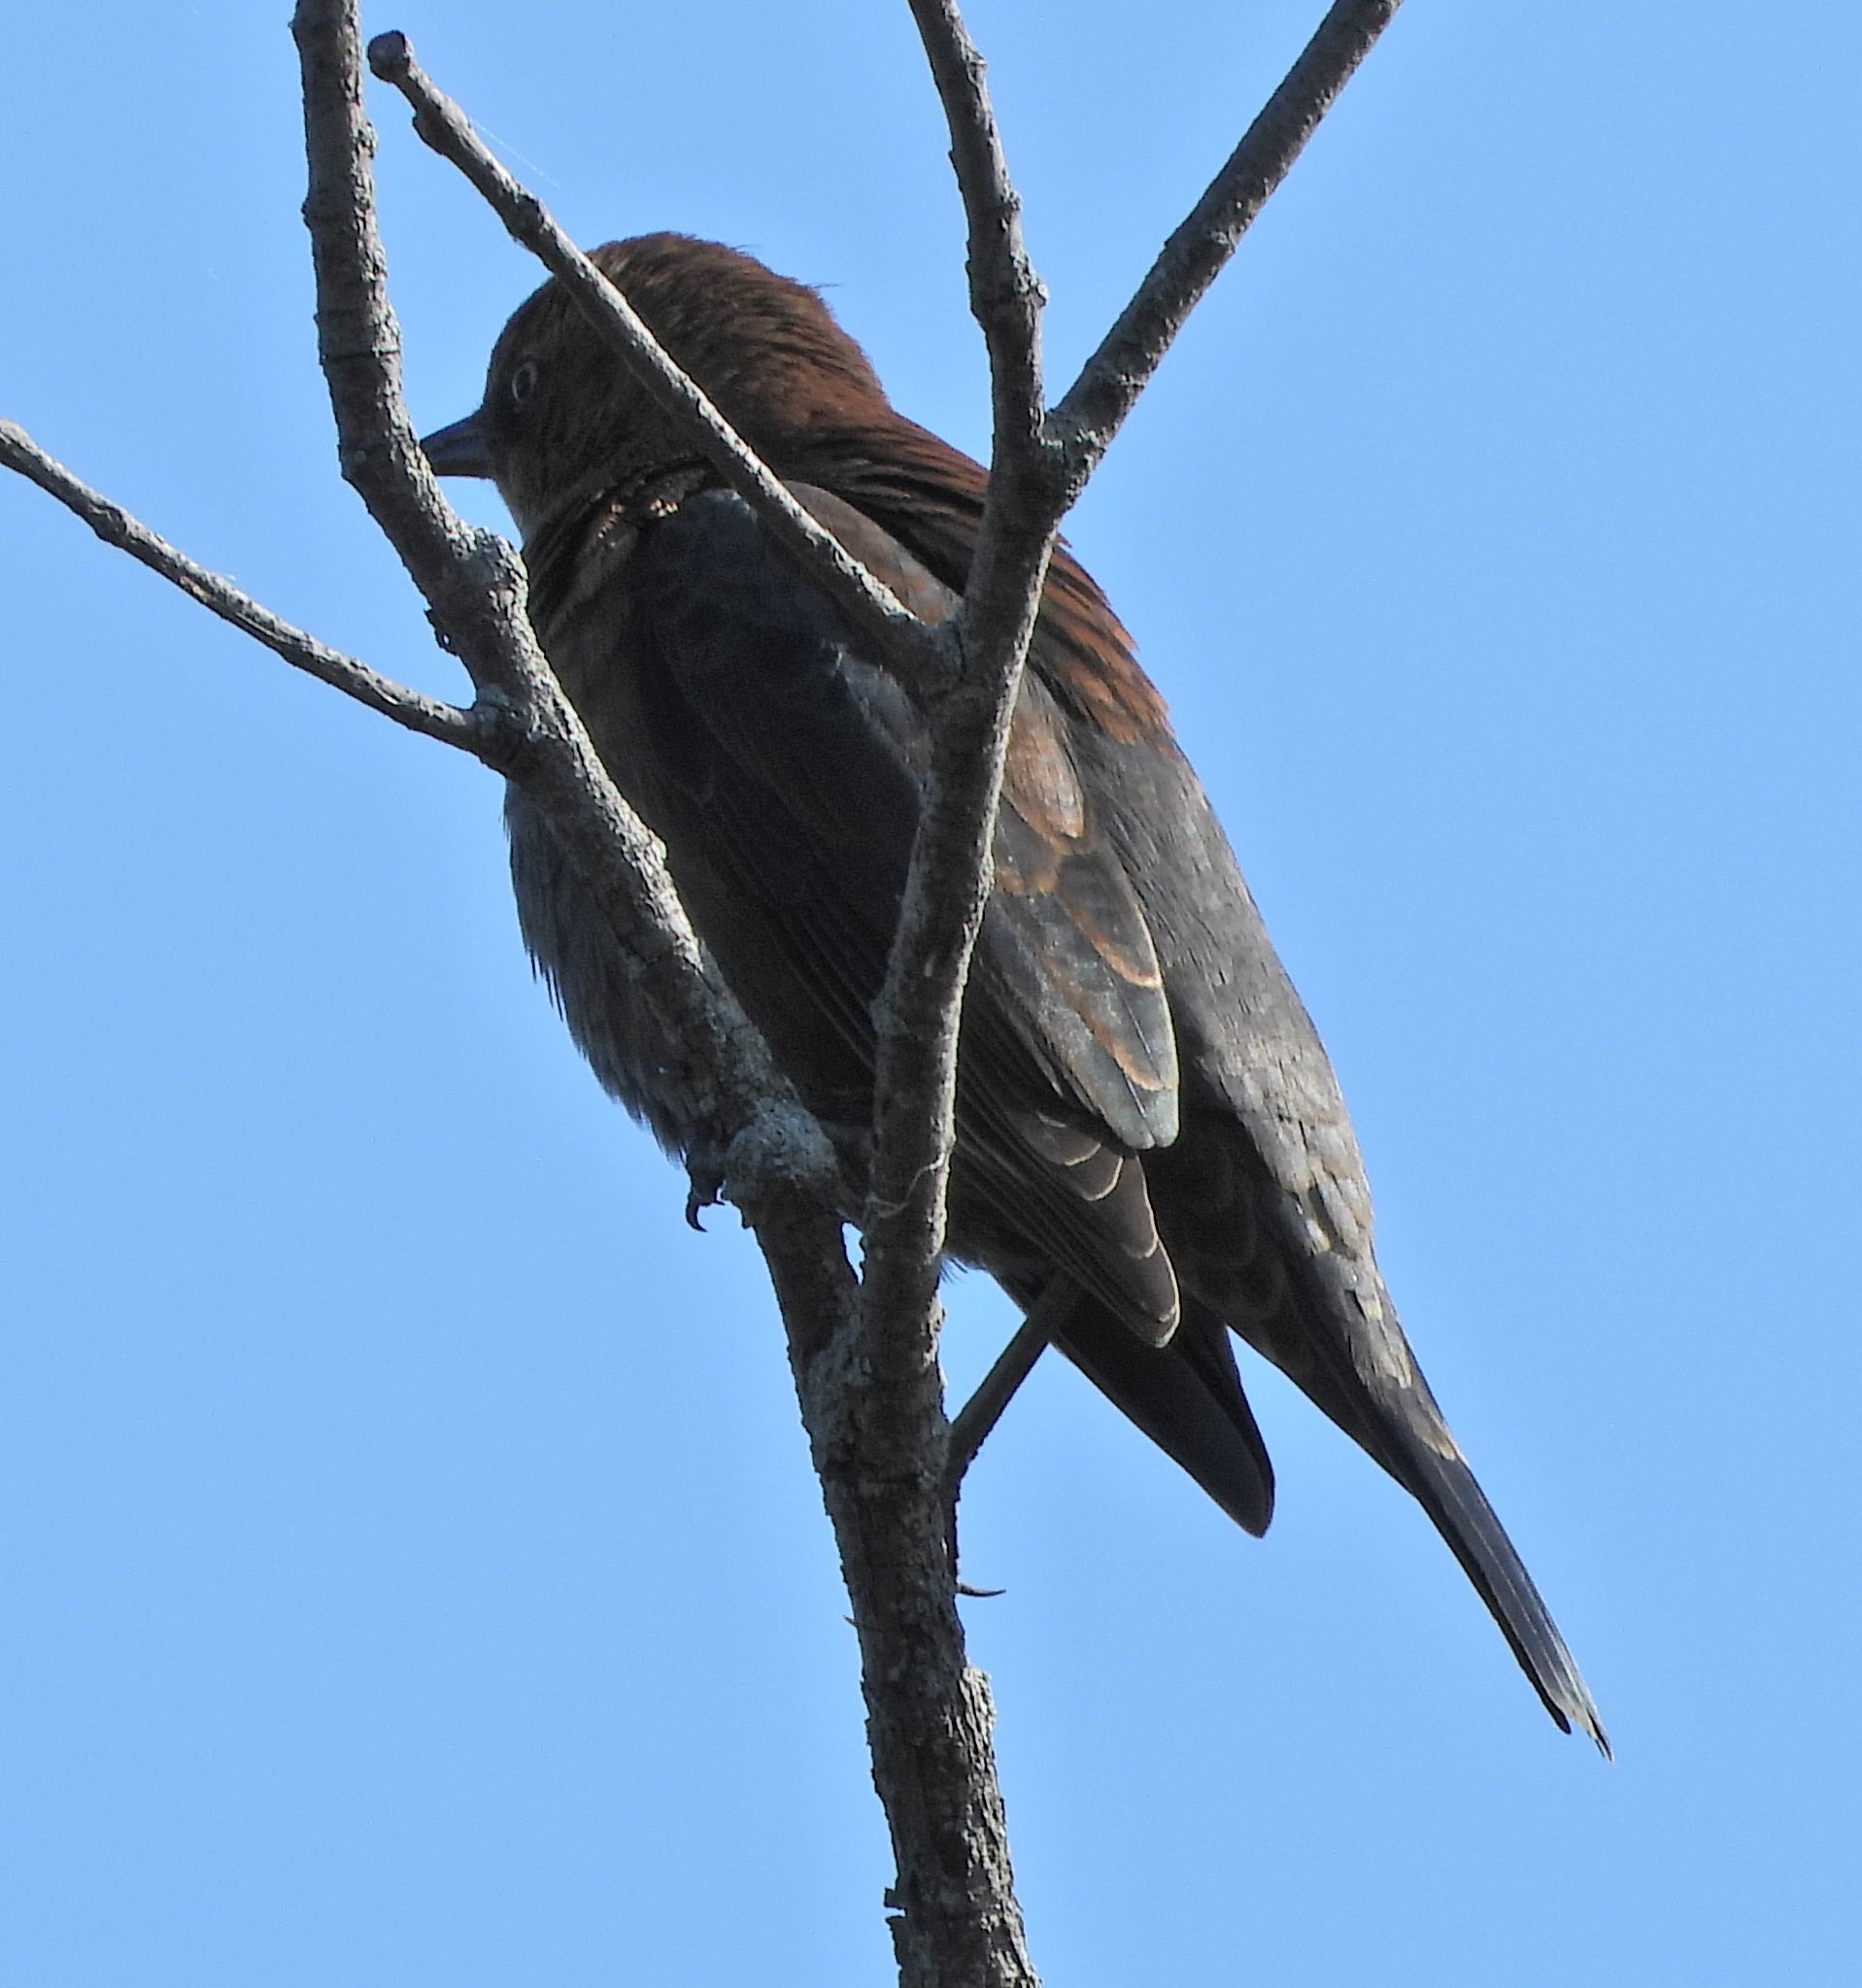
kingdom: Animalia
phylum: Chordata
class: Aves
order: Passeriformes
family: Icteridae
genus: Euphagus
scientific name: Euphagus carolinus
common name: Rusty blackbird
